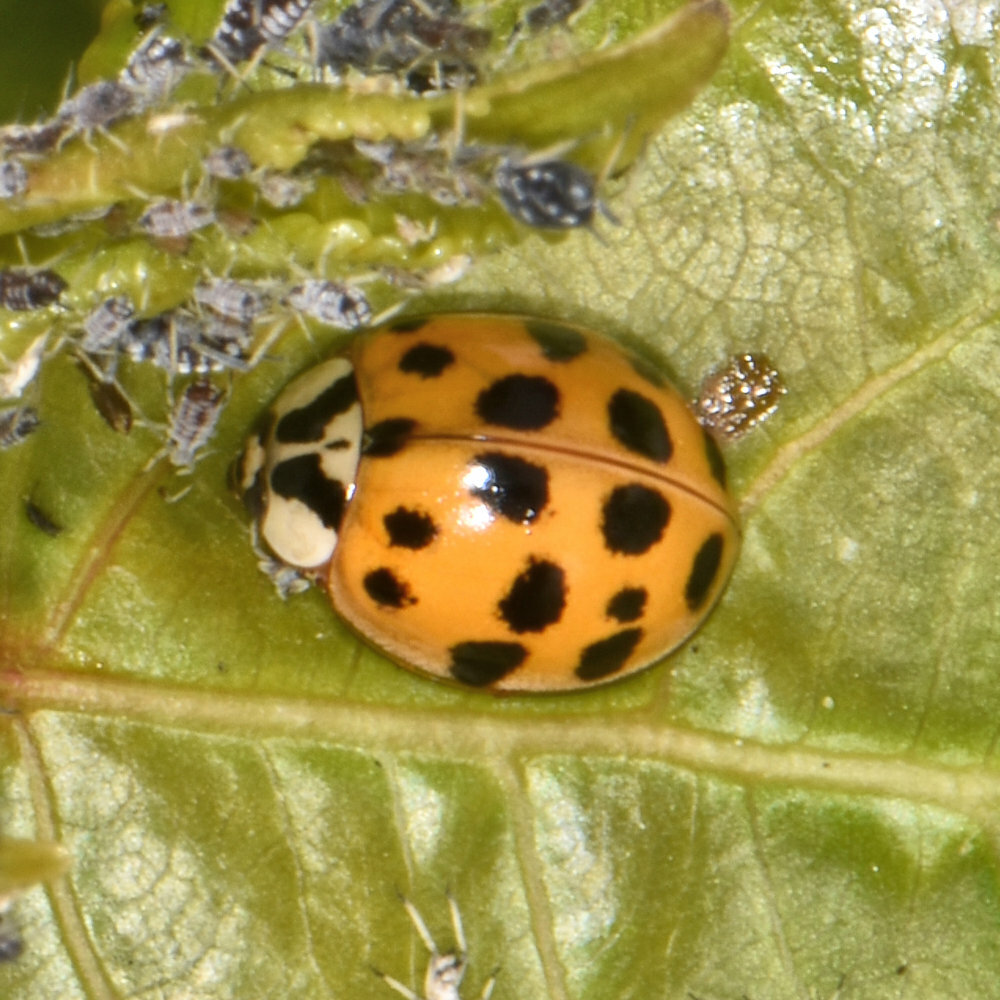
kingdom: Animalia
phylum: Arthropoda
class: Insecta
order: Coleoptera
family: Coccinellidae
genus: Harmonia
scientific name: Harmonia axyridis
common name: Harlequin ladybird
